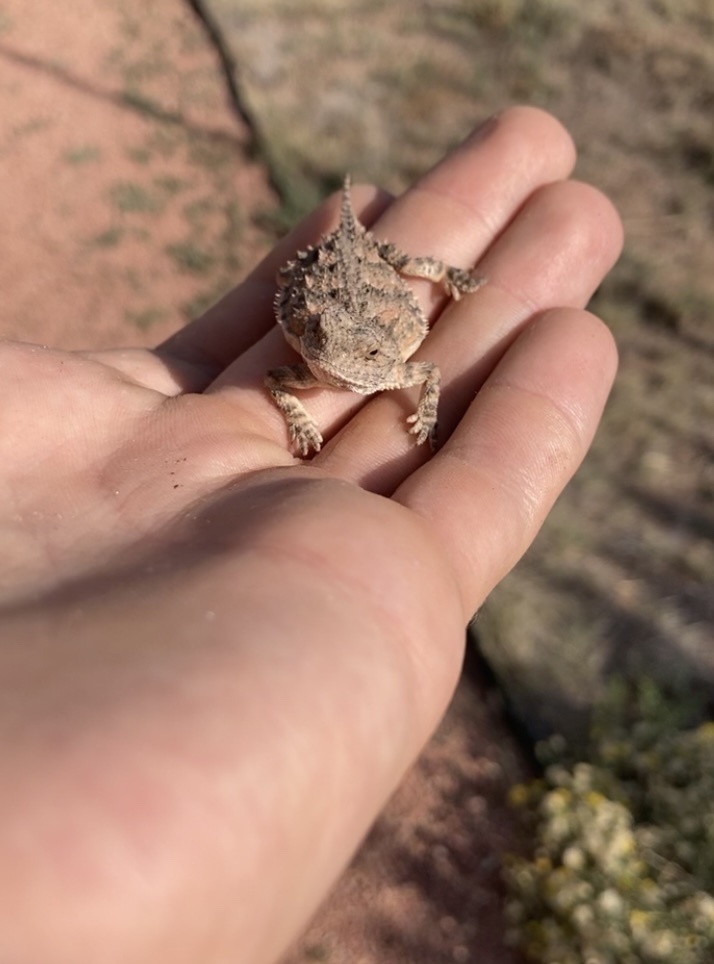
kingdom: Animalia
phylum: Chordata
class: Squamata
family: Phrynosomatidae
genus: Phrynosoma
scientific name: Phrynosoma hernandesi
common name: Greater short-horned lizard
